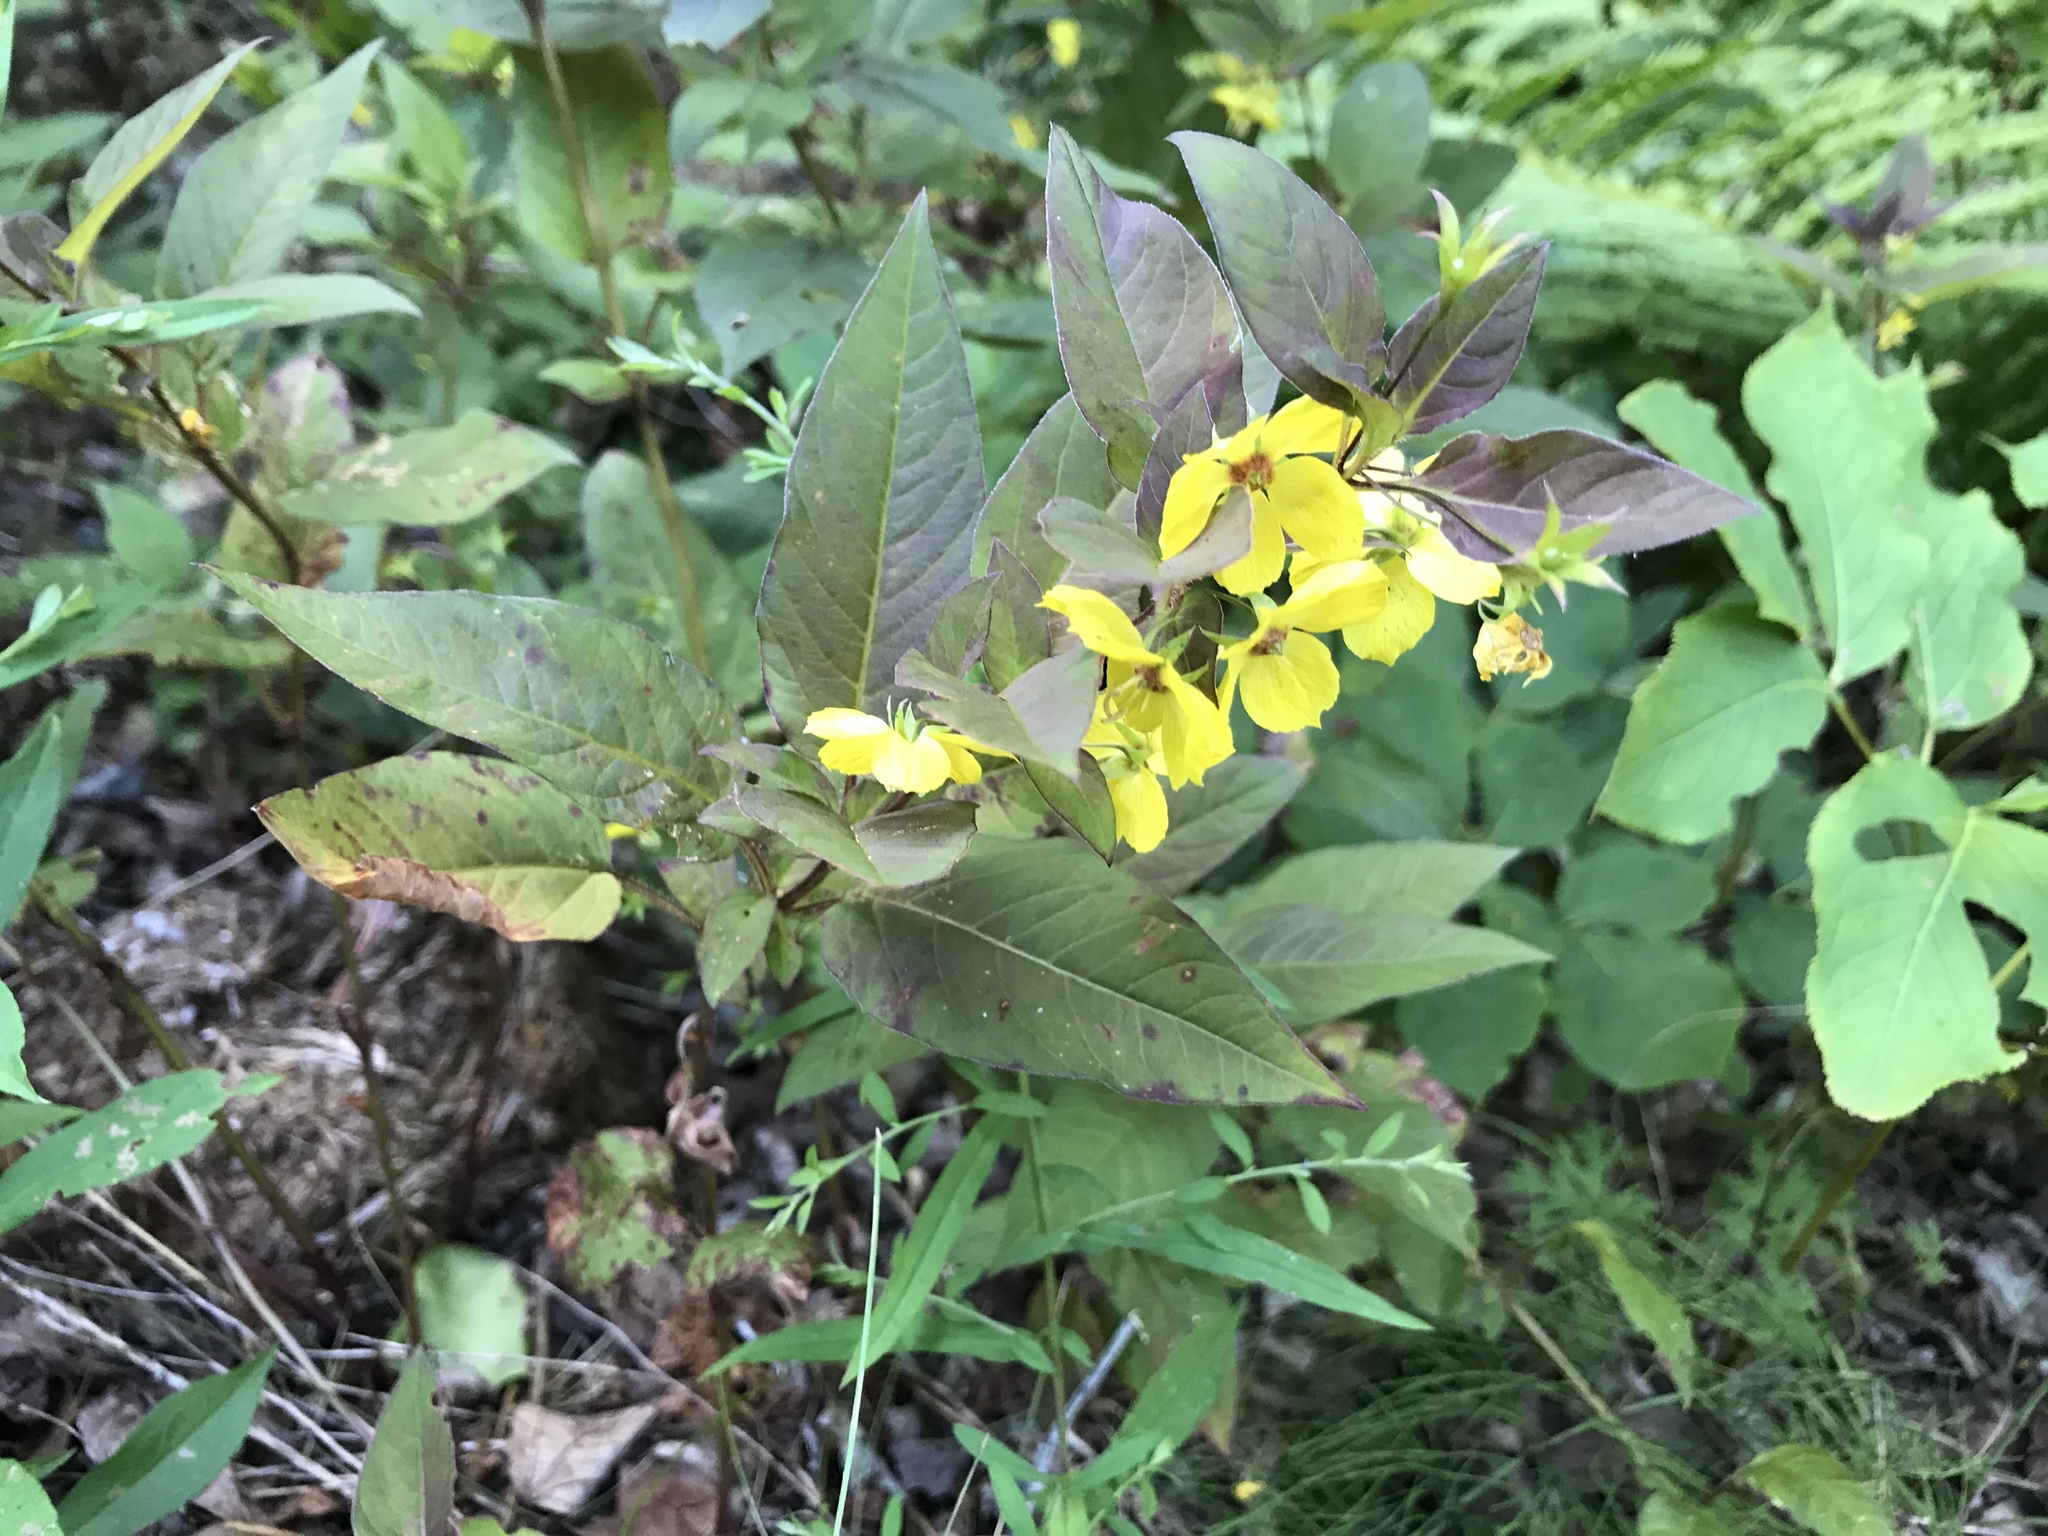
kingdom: Plantae
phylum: Tracheophyta
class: Magnoliopsida
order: Ericales
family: Primulaceae
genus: Lysimachia
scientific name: Lysimachia ciliata
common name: Fringed loosestrife
